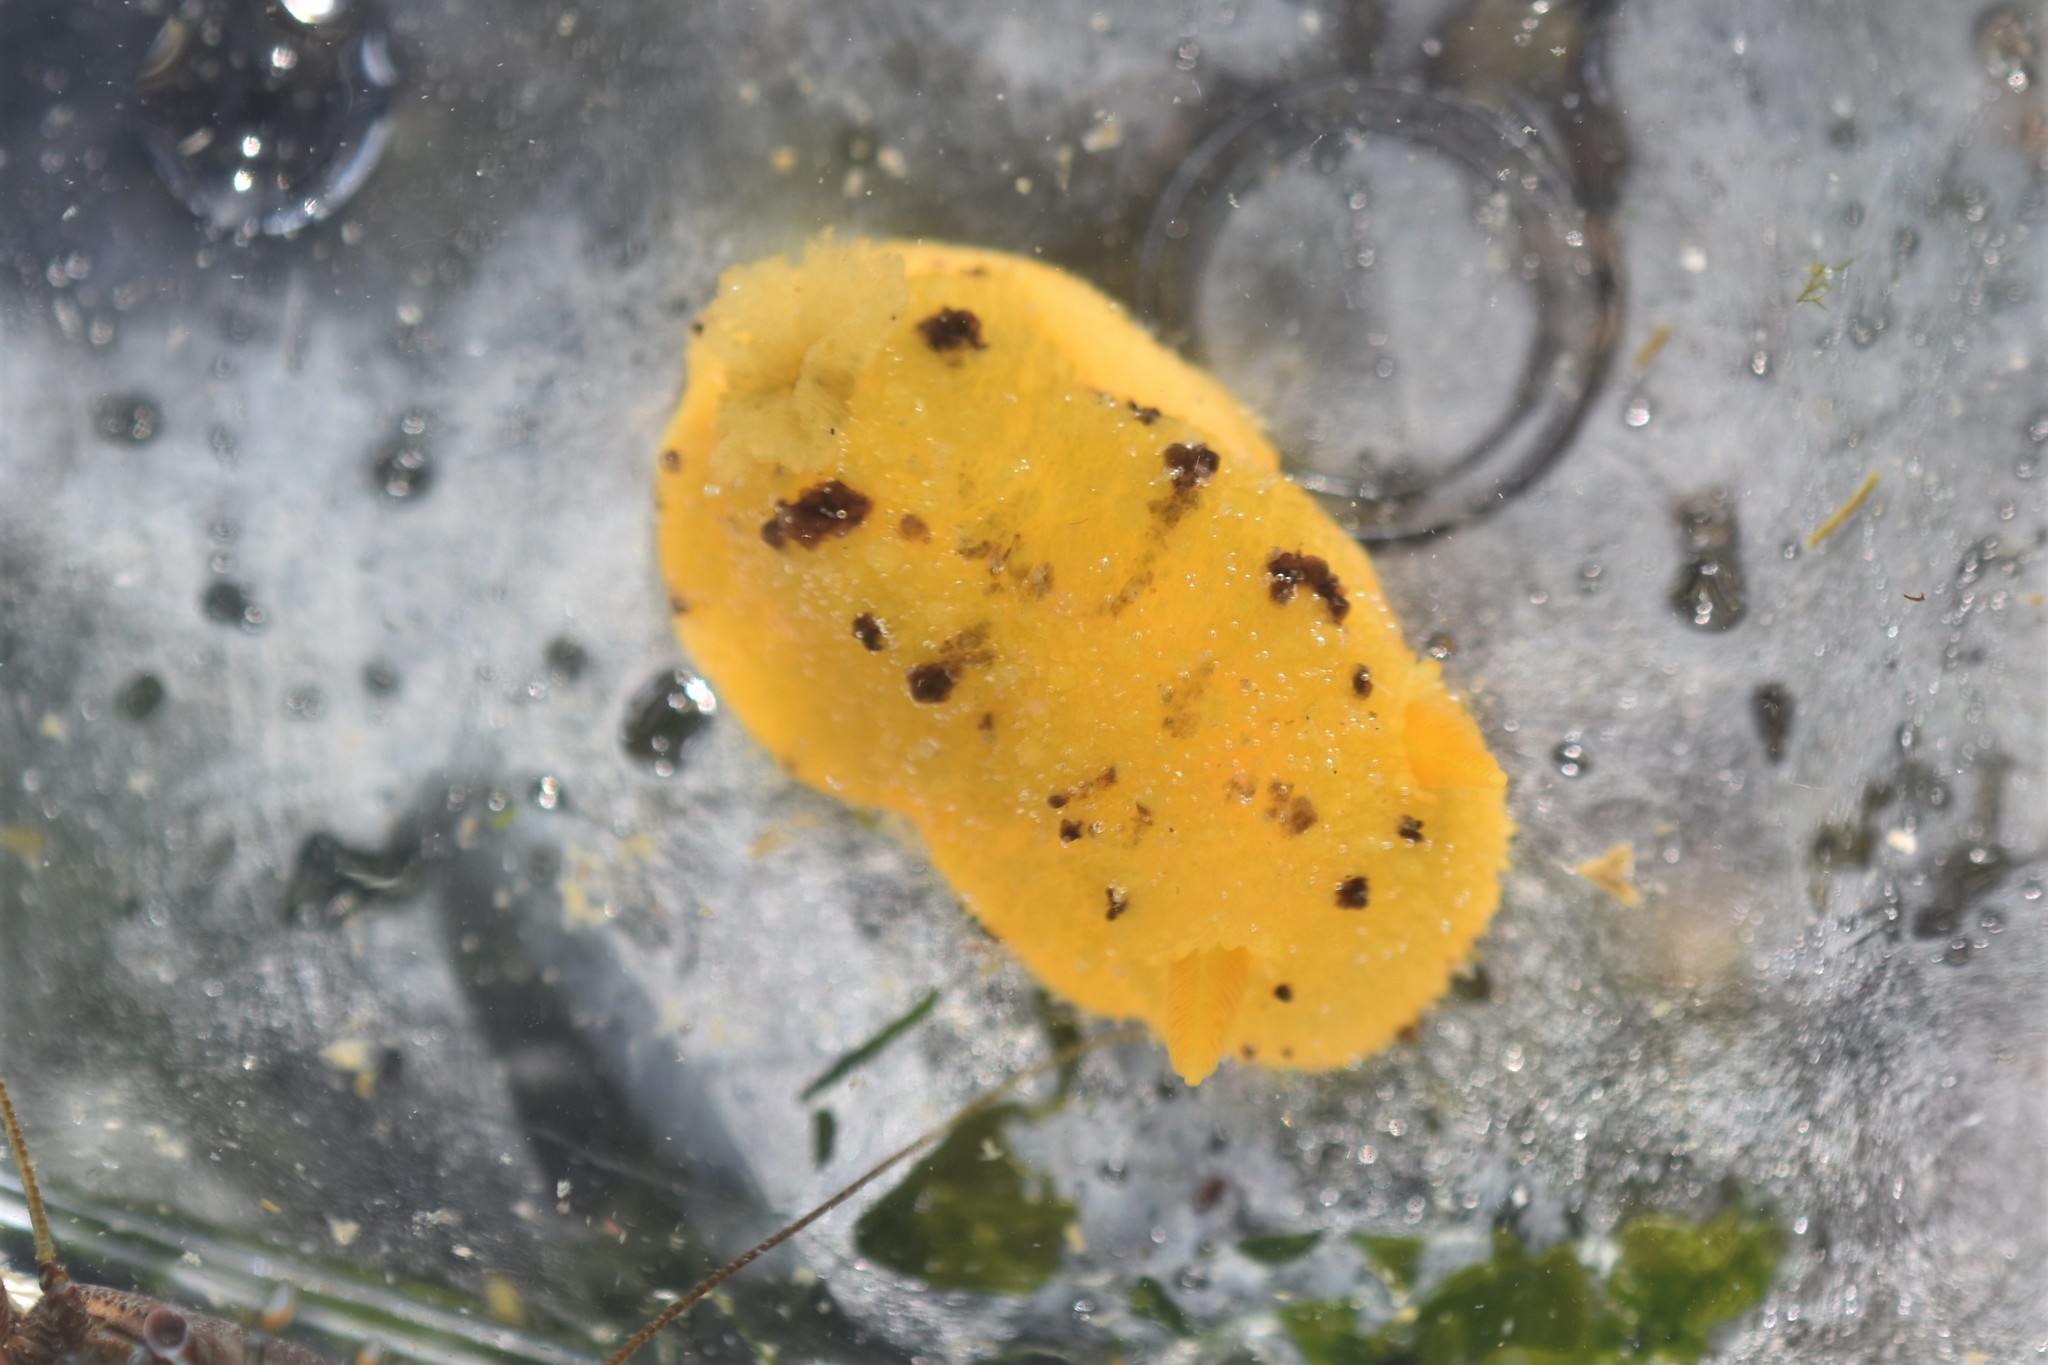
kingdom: Animalia
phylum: Mollusca
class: Gastropoda
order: Nudibranchia
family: Dorididae
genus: Doris
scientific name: Doris montereyensis
